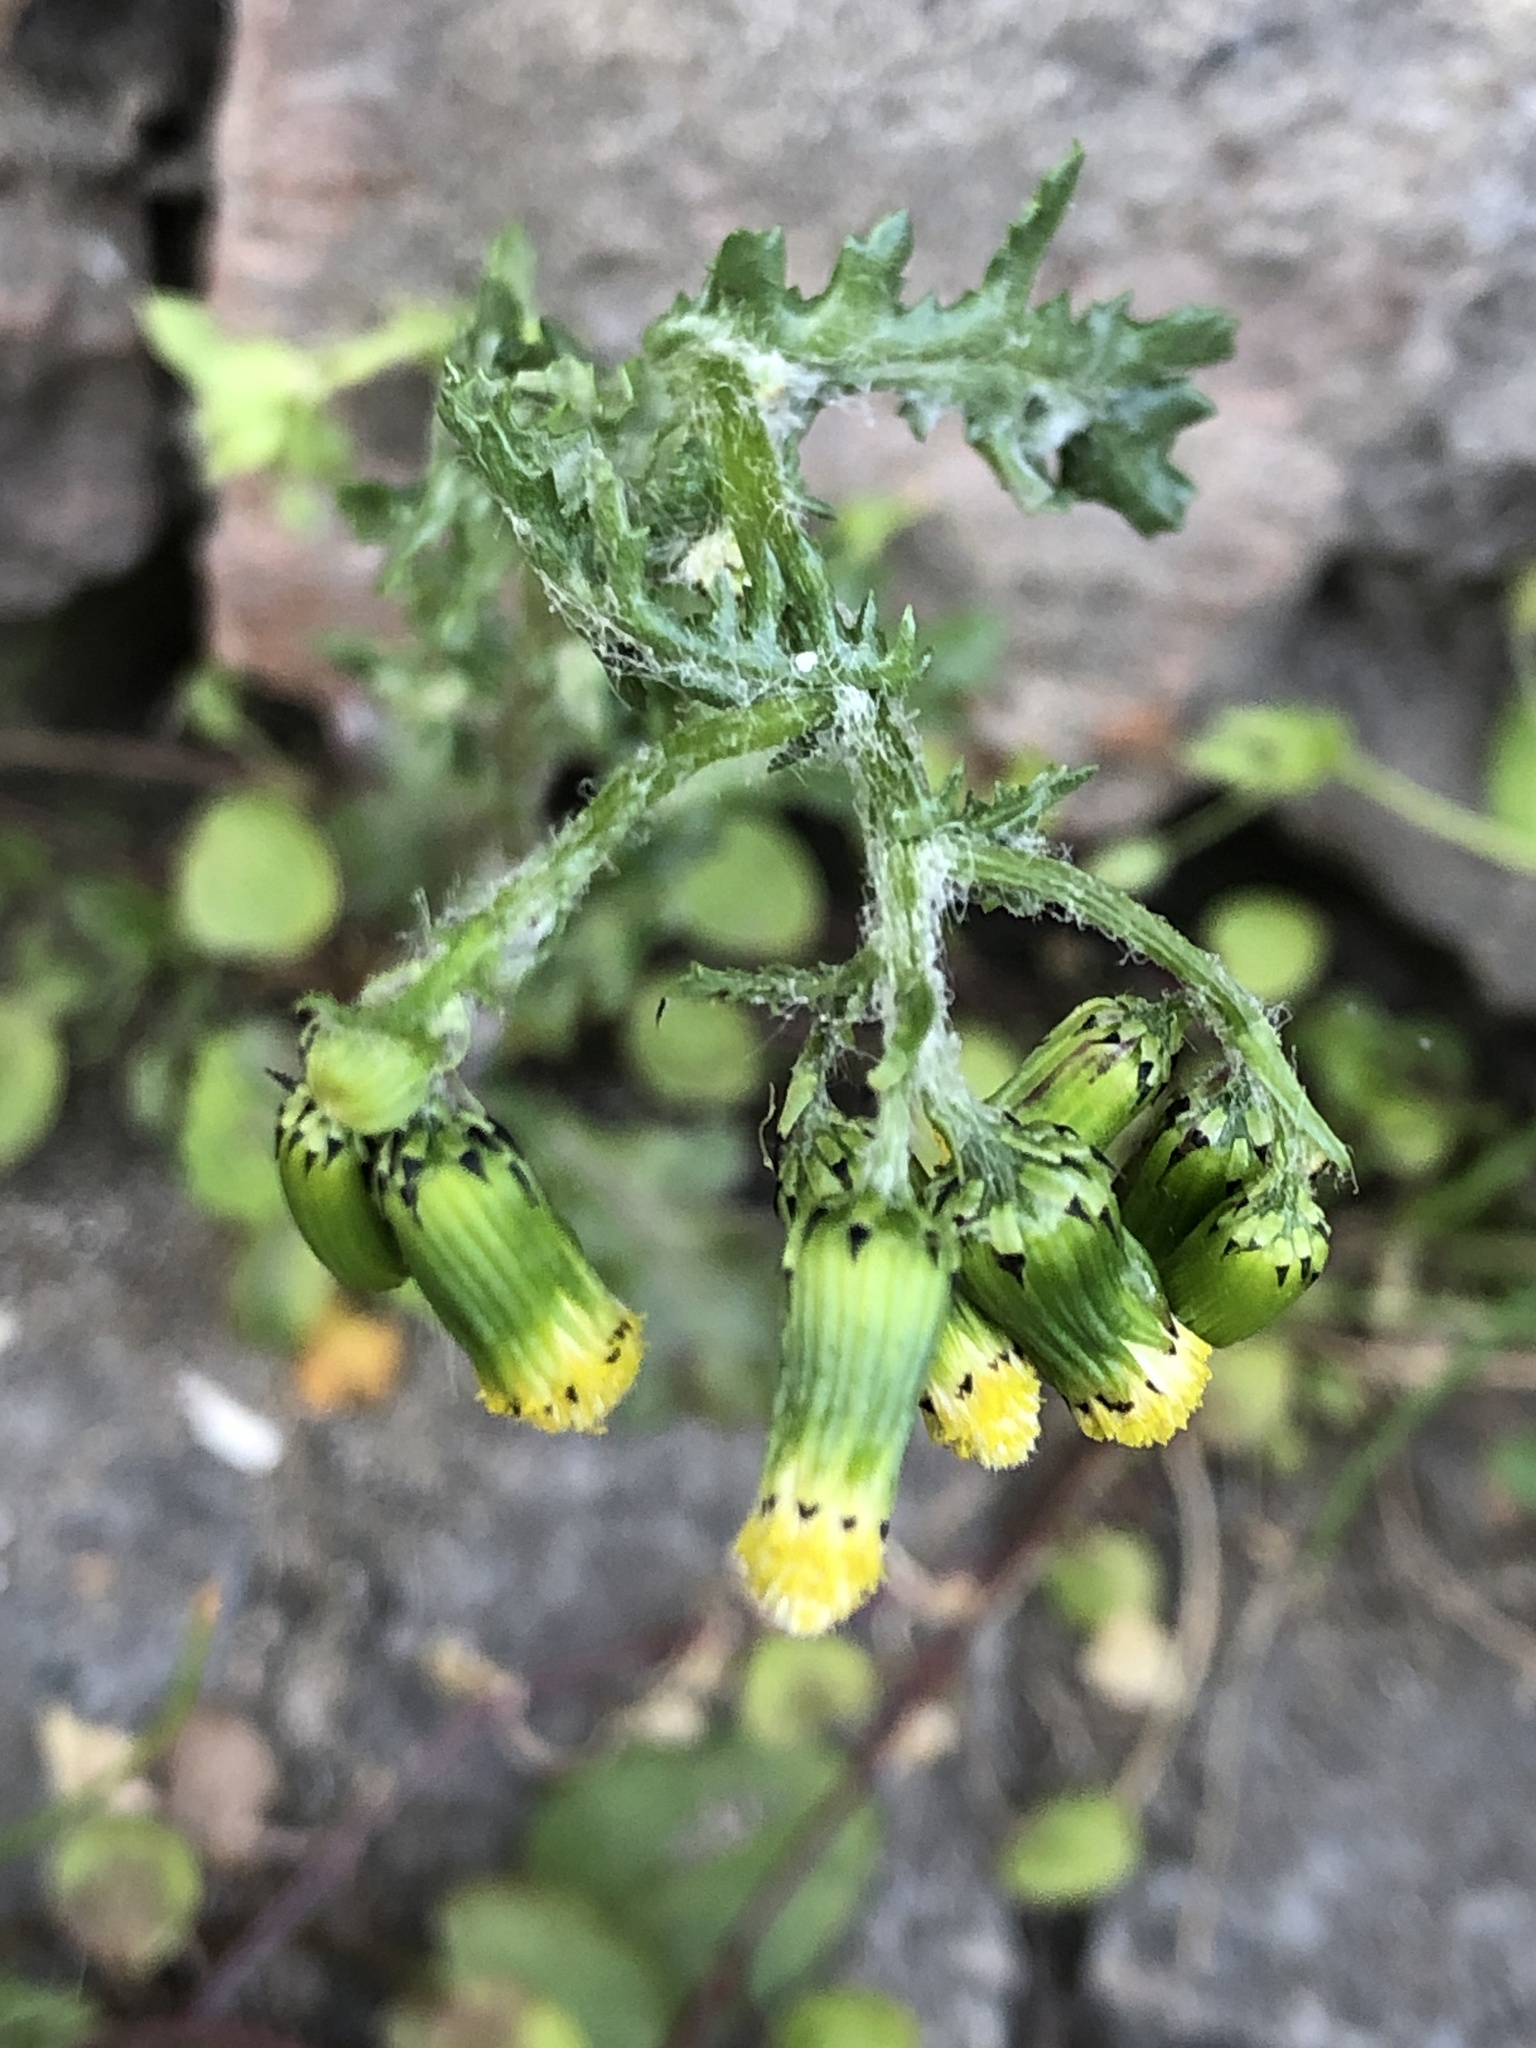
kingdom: Plantae
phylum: Tracheophyta
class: Magnoliopsida
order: Asterales
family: Asteraceae
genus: Senecio
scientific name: Senecio vulgaris
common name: Old-man-in-the-spring
